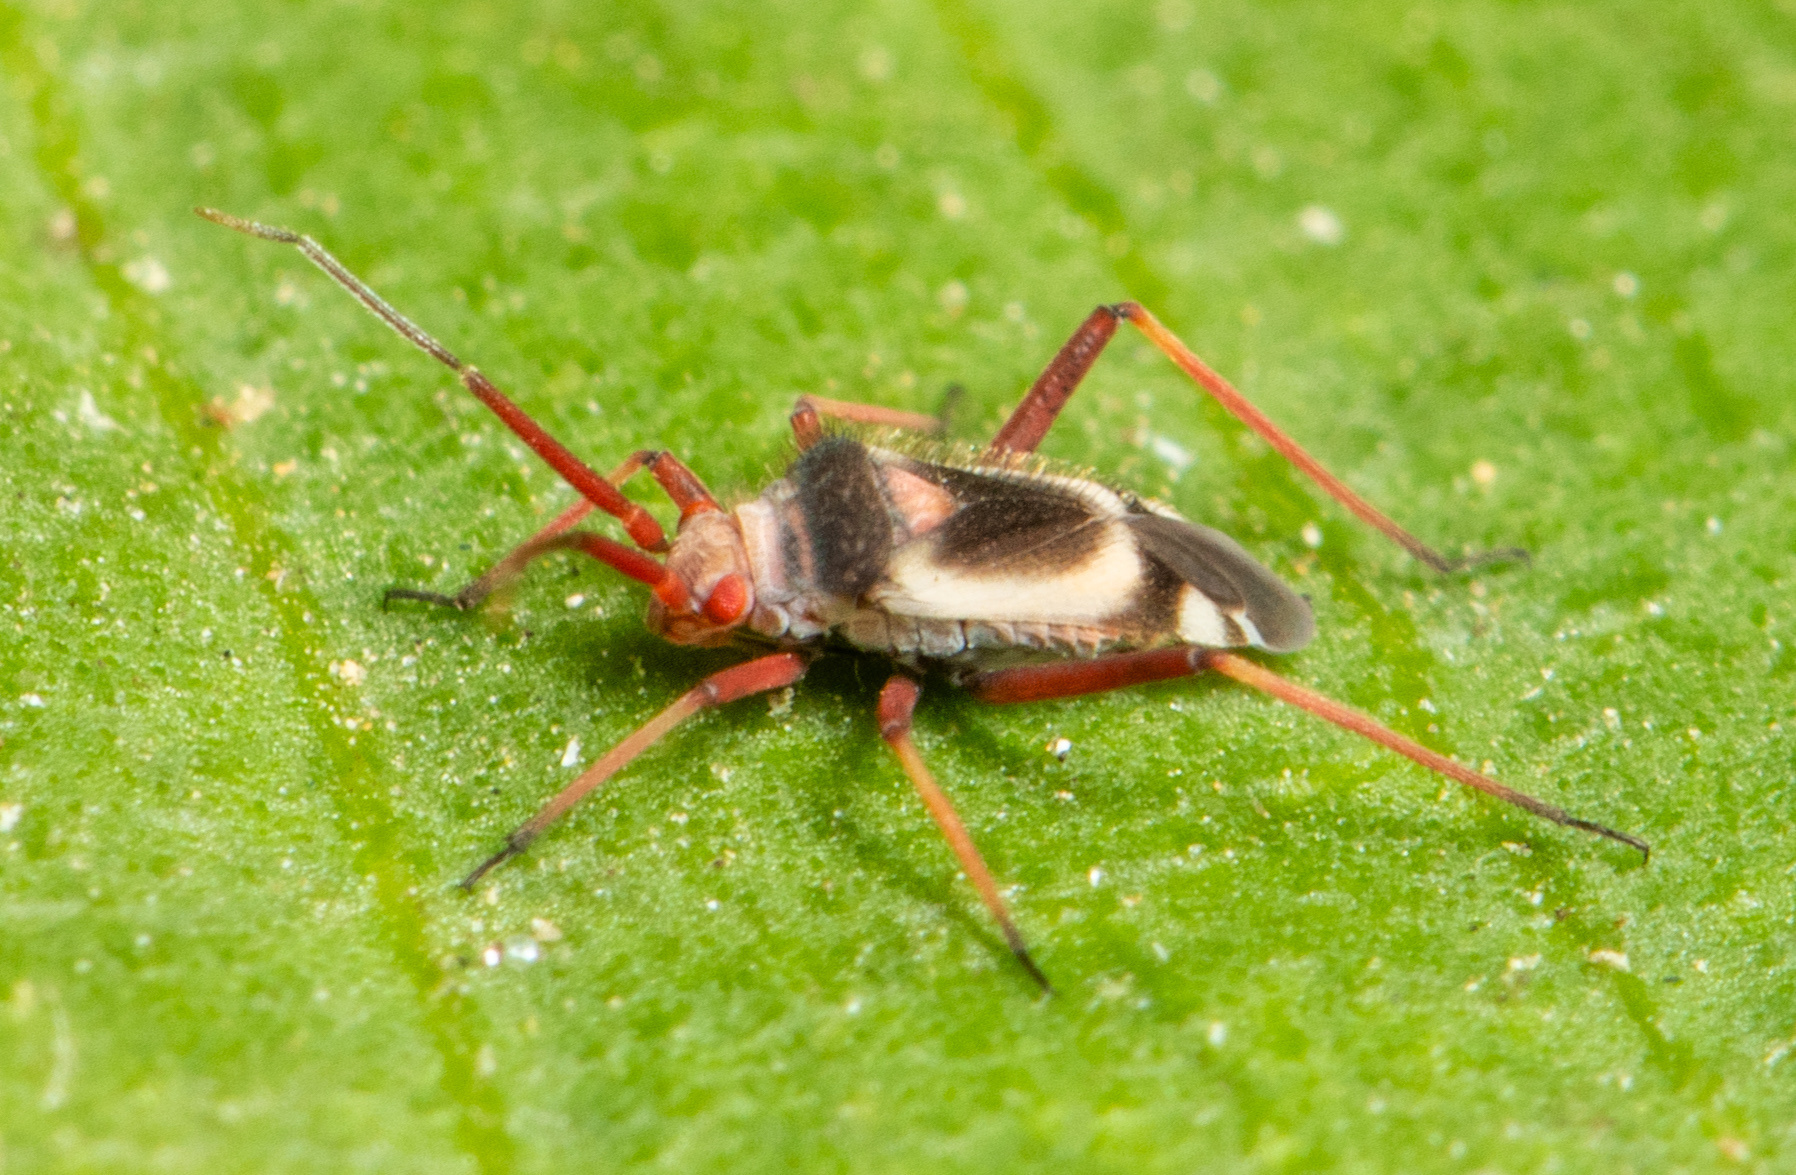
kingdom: Animalia
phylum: Arthropoda
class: Insecta
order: Hemiptera
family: Miridae
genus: Semium
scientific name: Semium hirtum
